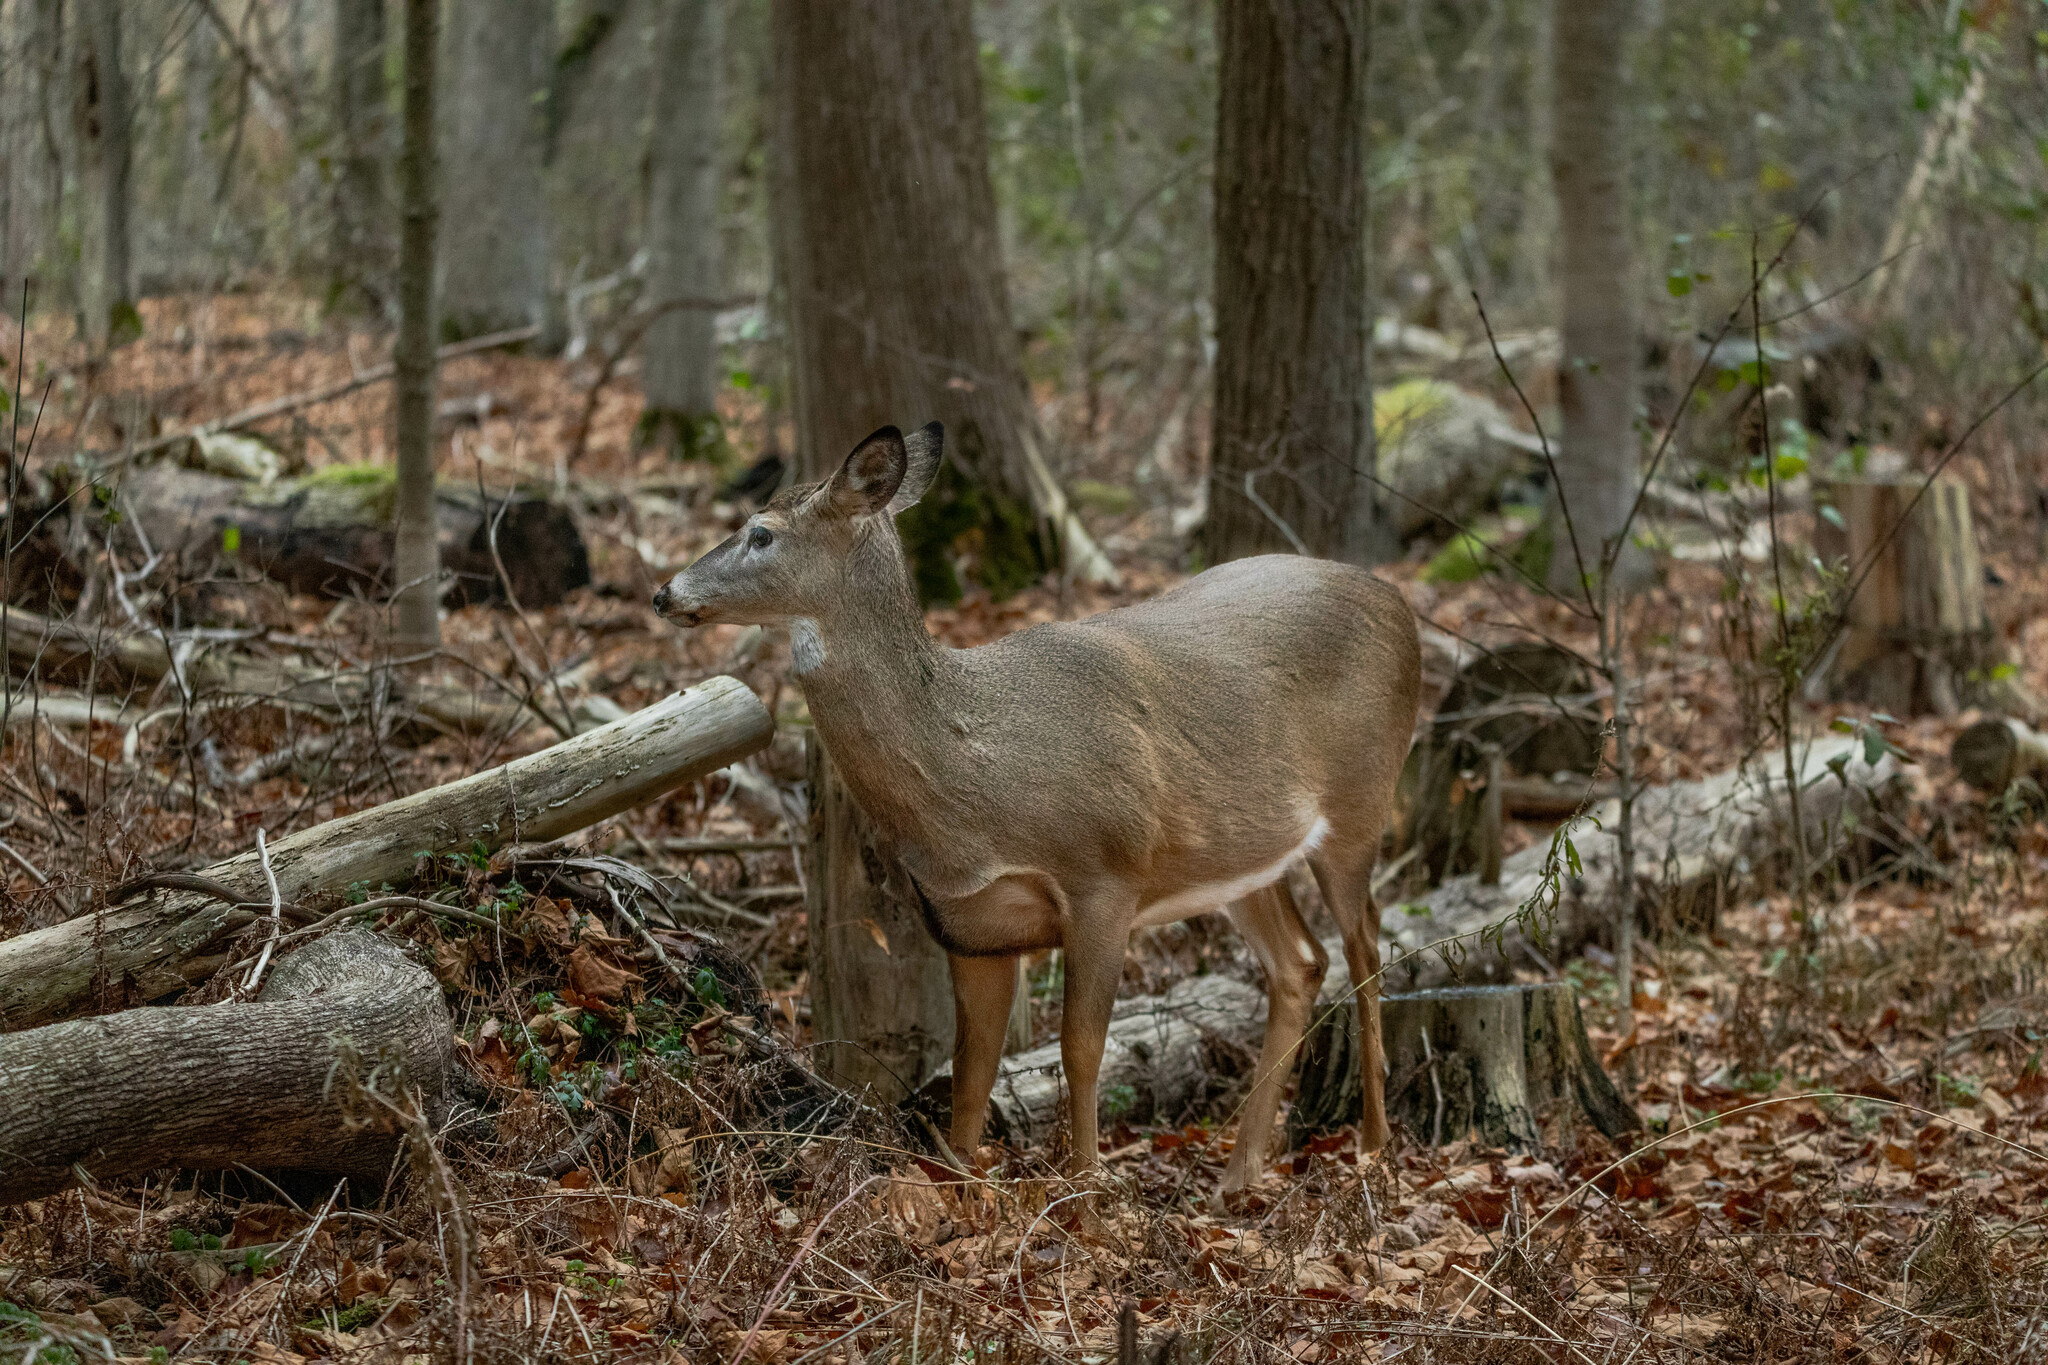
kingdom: Animalia
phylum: Chordata
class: Mammalia
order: Artiodactyla
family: Cervidae
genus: Odocoileus
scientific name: Odocoileus virginianus
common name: White-tailed deer
